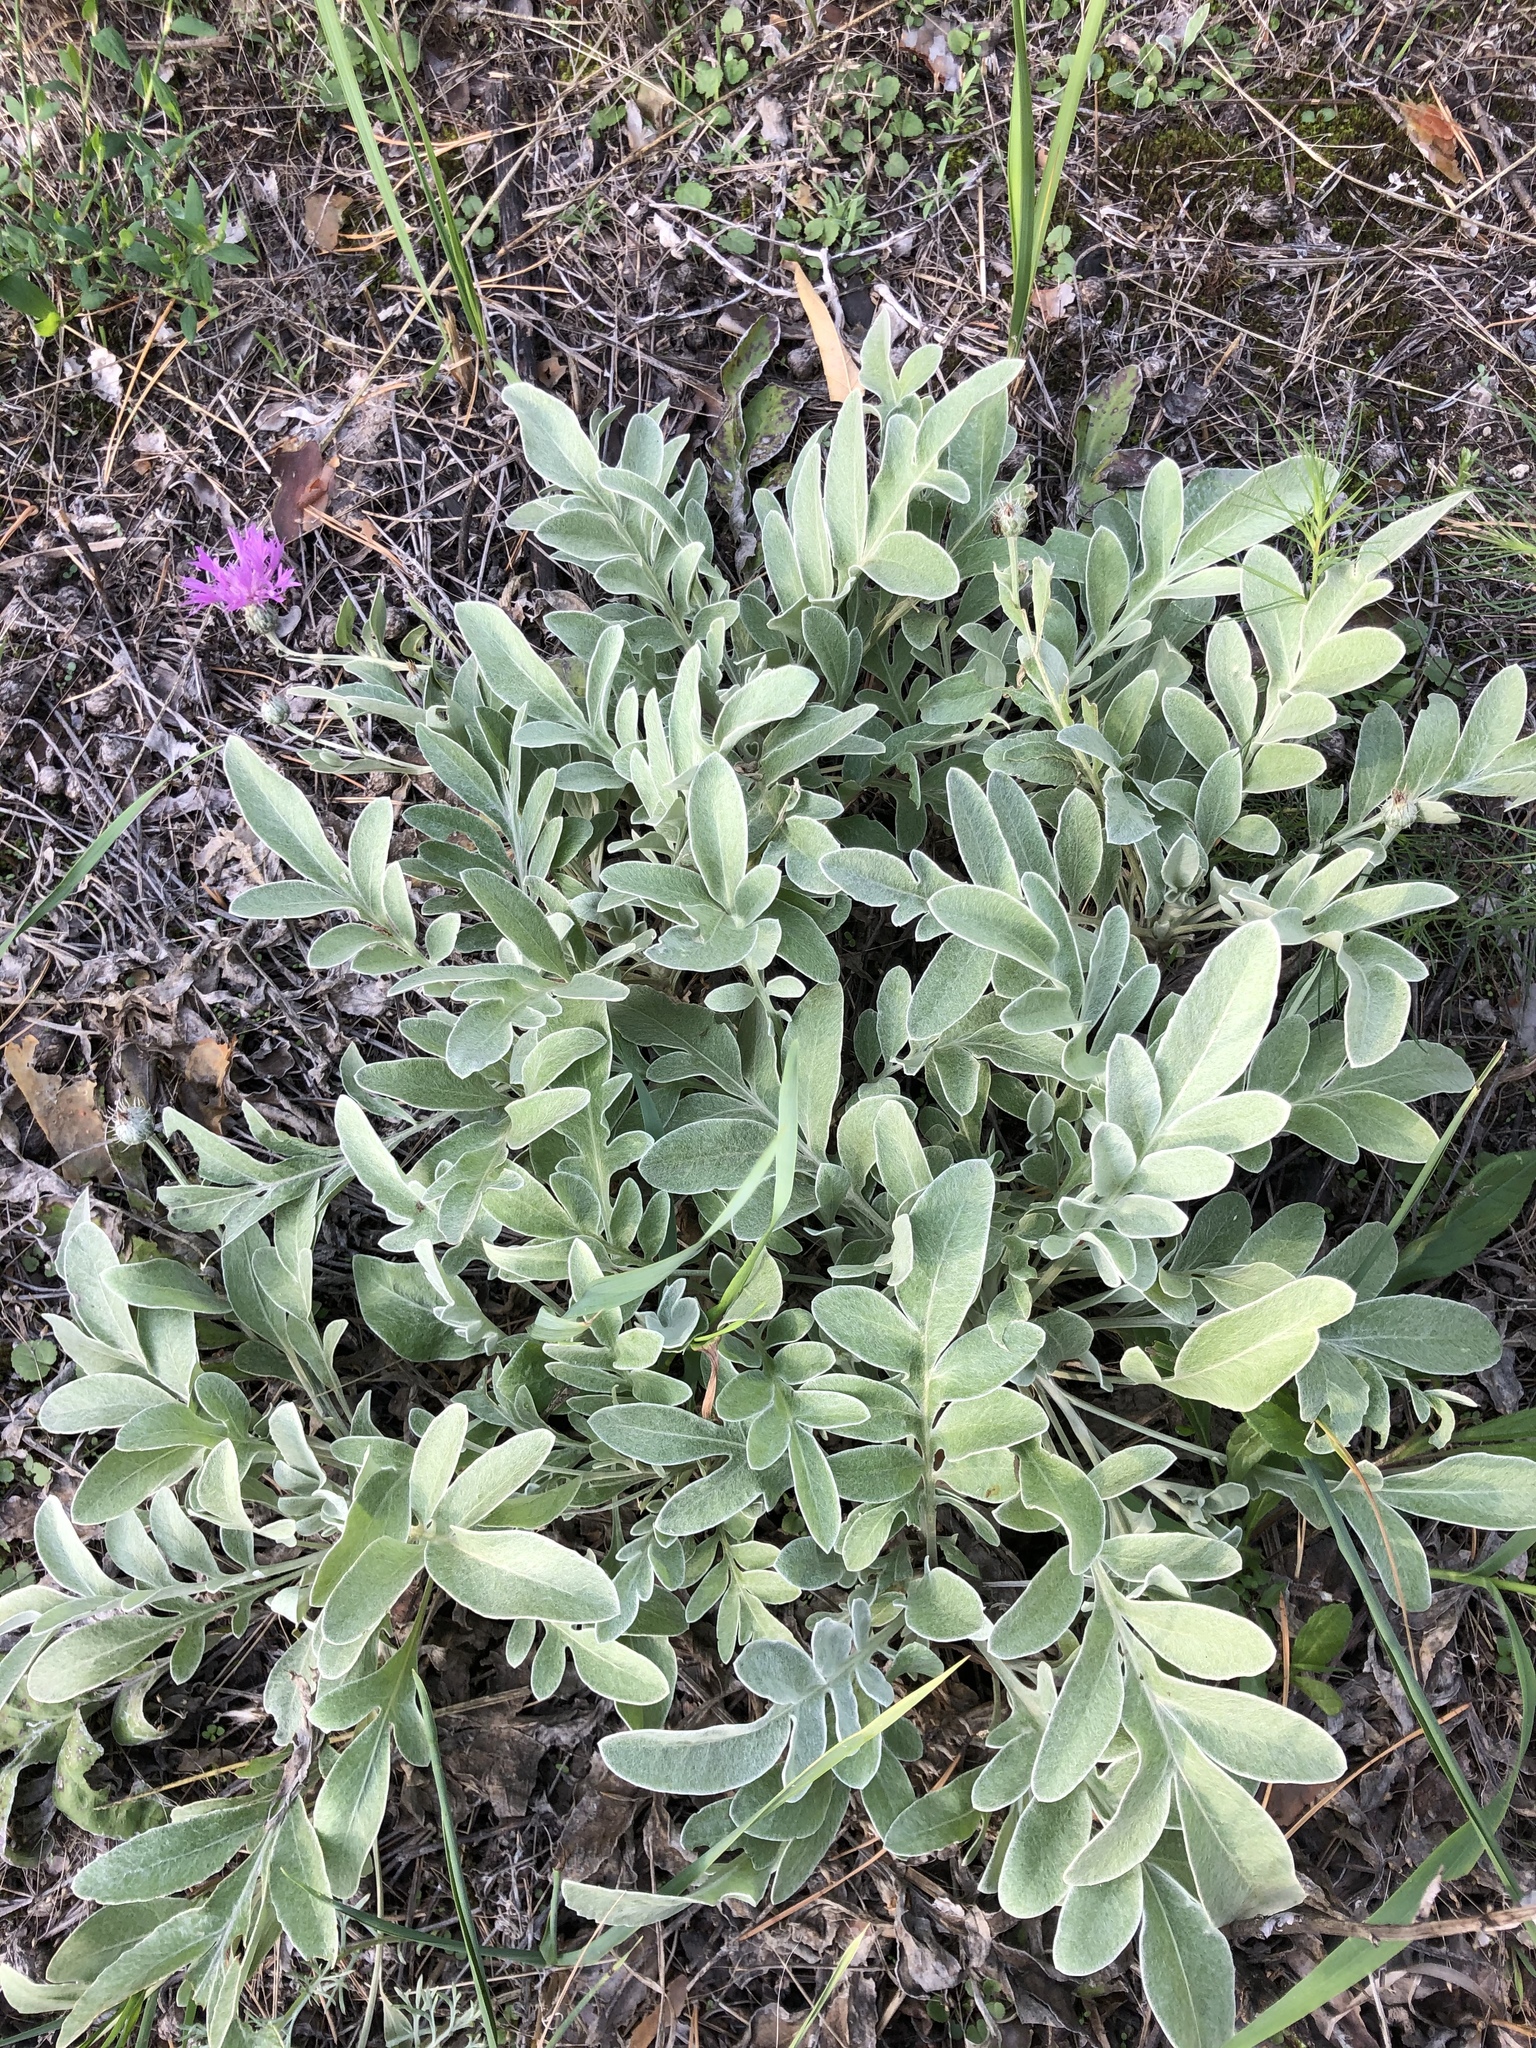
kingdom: Plantae
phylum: Tracheophyta
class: Magnoliopsida
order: Asterales
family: Asteraceae
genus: Psephellus
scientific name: Psephellus sumensis
